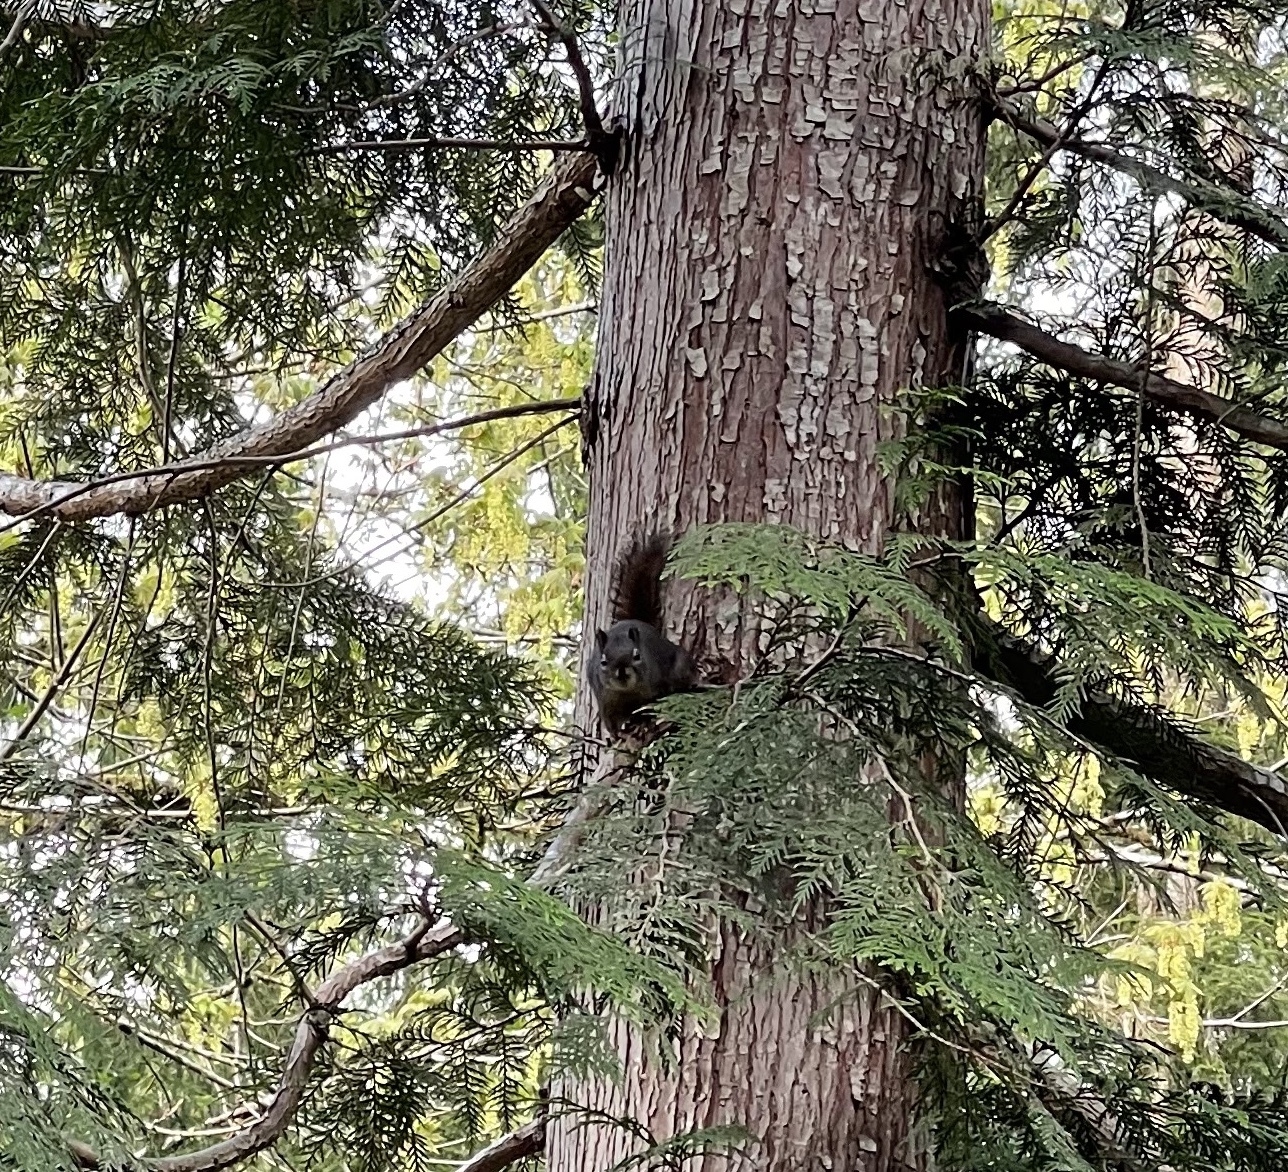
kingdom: Animalia
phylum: Chordata
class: Mammalia
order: Rodentia
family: Sciuridae
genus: Tamiasciurus
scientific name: Tamiasciurus douglasii
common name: Douglas's squirrel
